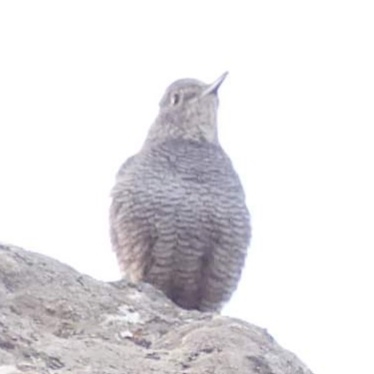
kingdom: Animalia
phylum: Chordata
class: Aves
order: Passeriformes
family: Muscicapidae
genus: Monticola
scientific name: Monticola solitarius
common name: Blue rock thrush
